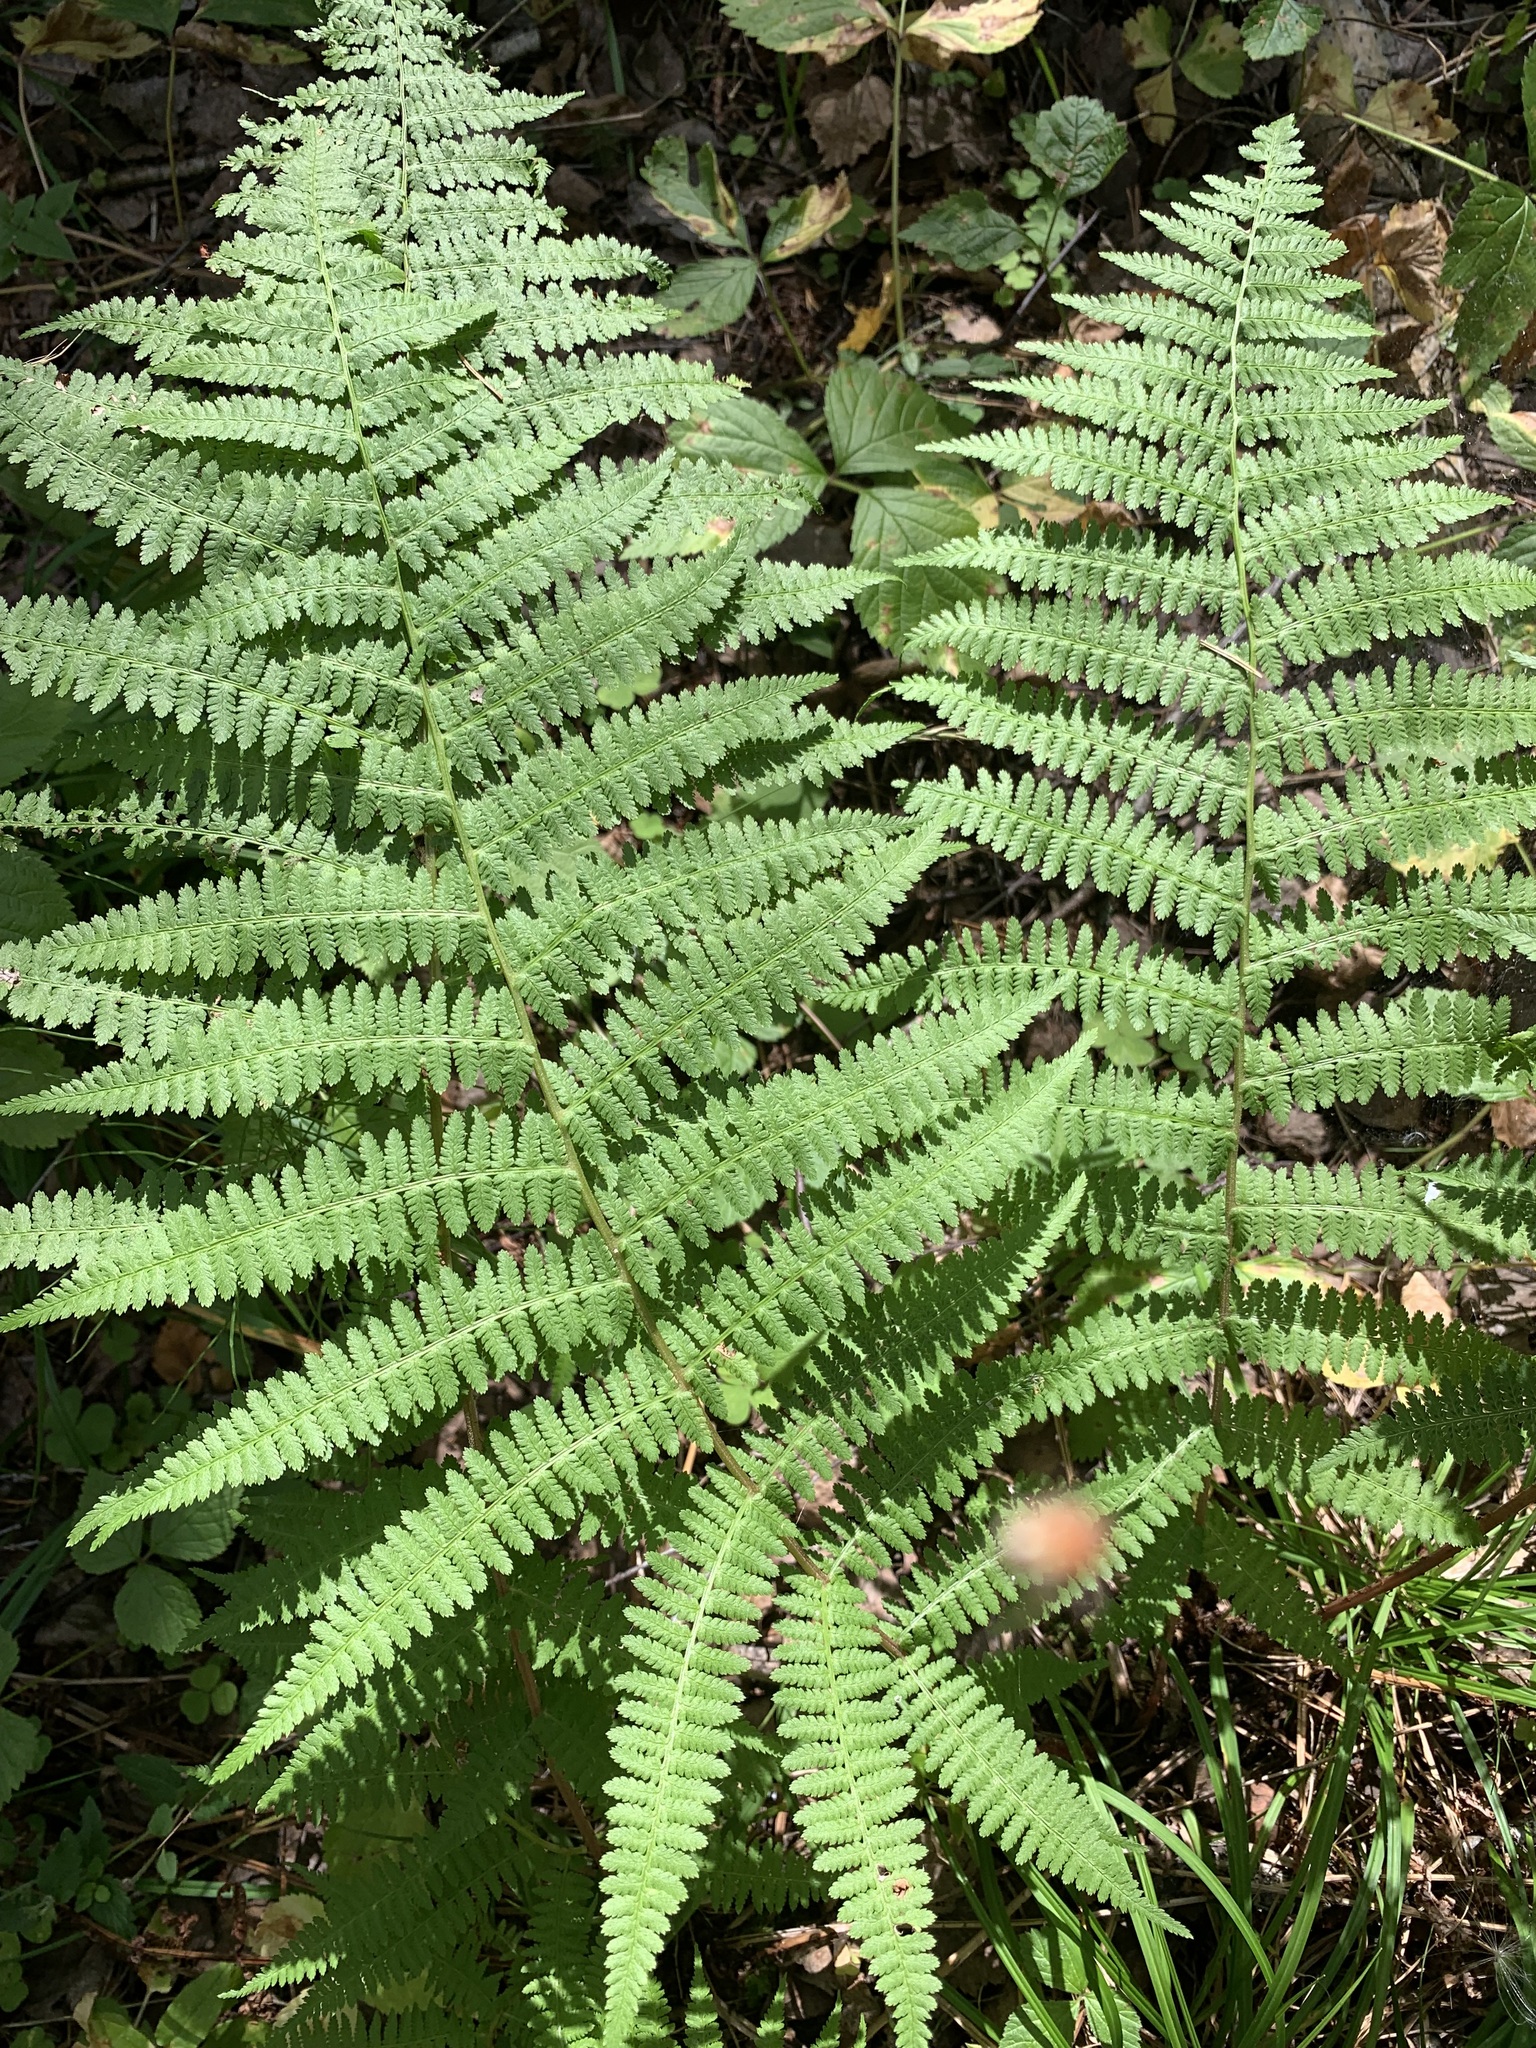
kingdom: Plantae
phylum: Tracheophyta
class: Polypodiopsida
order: Polypodiales
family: Athyriaceae
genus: Athyrium
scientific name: Athyrium filix-femina
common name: Lady fern
